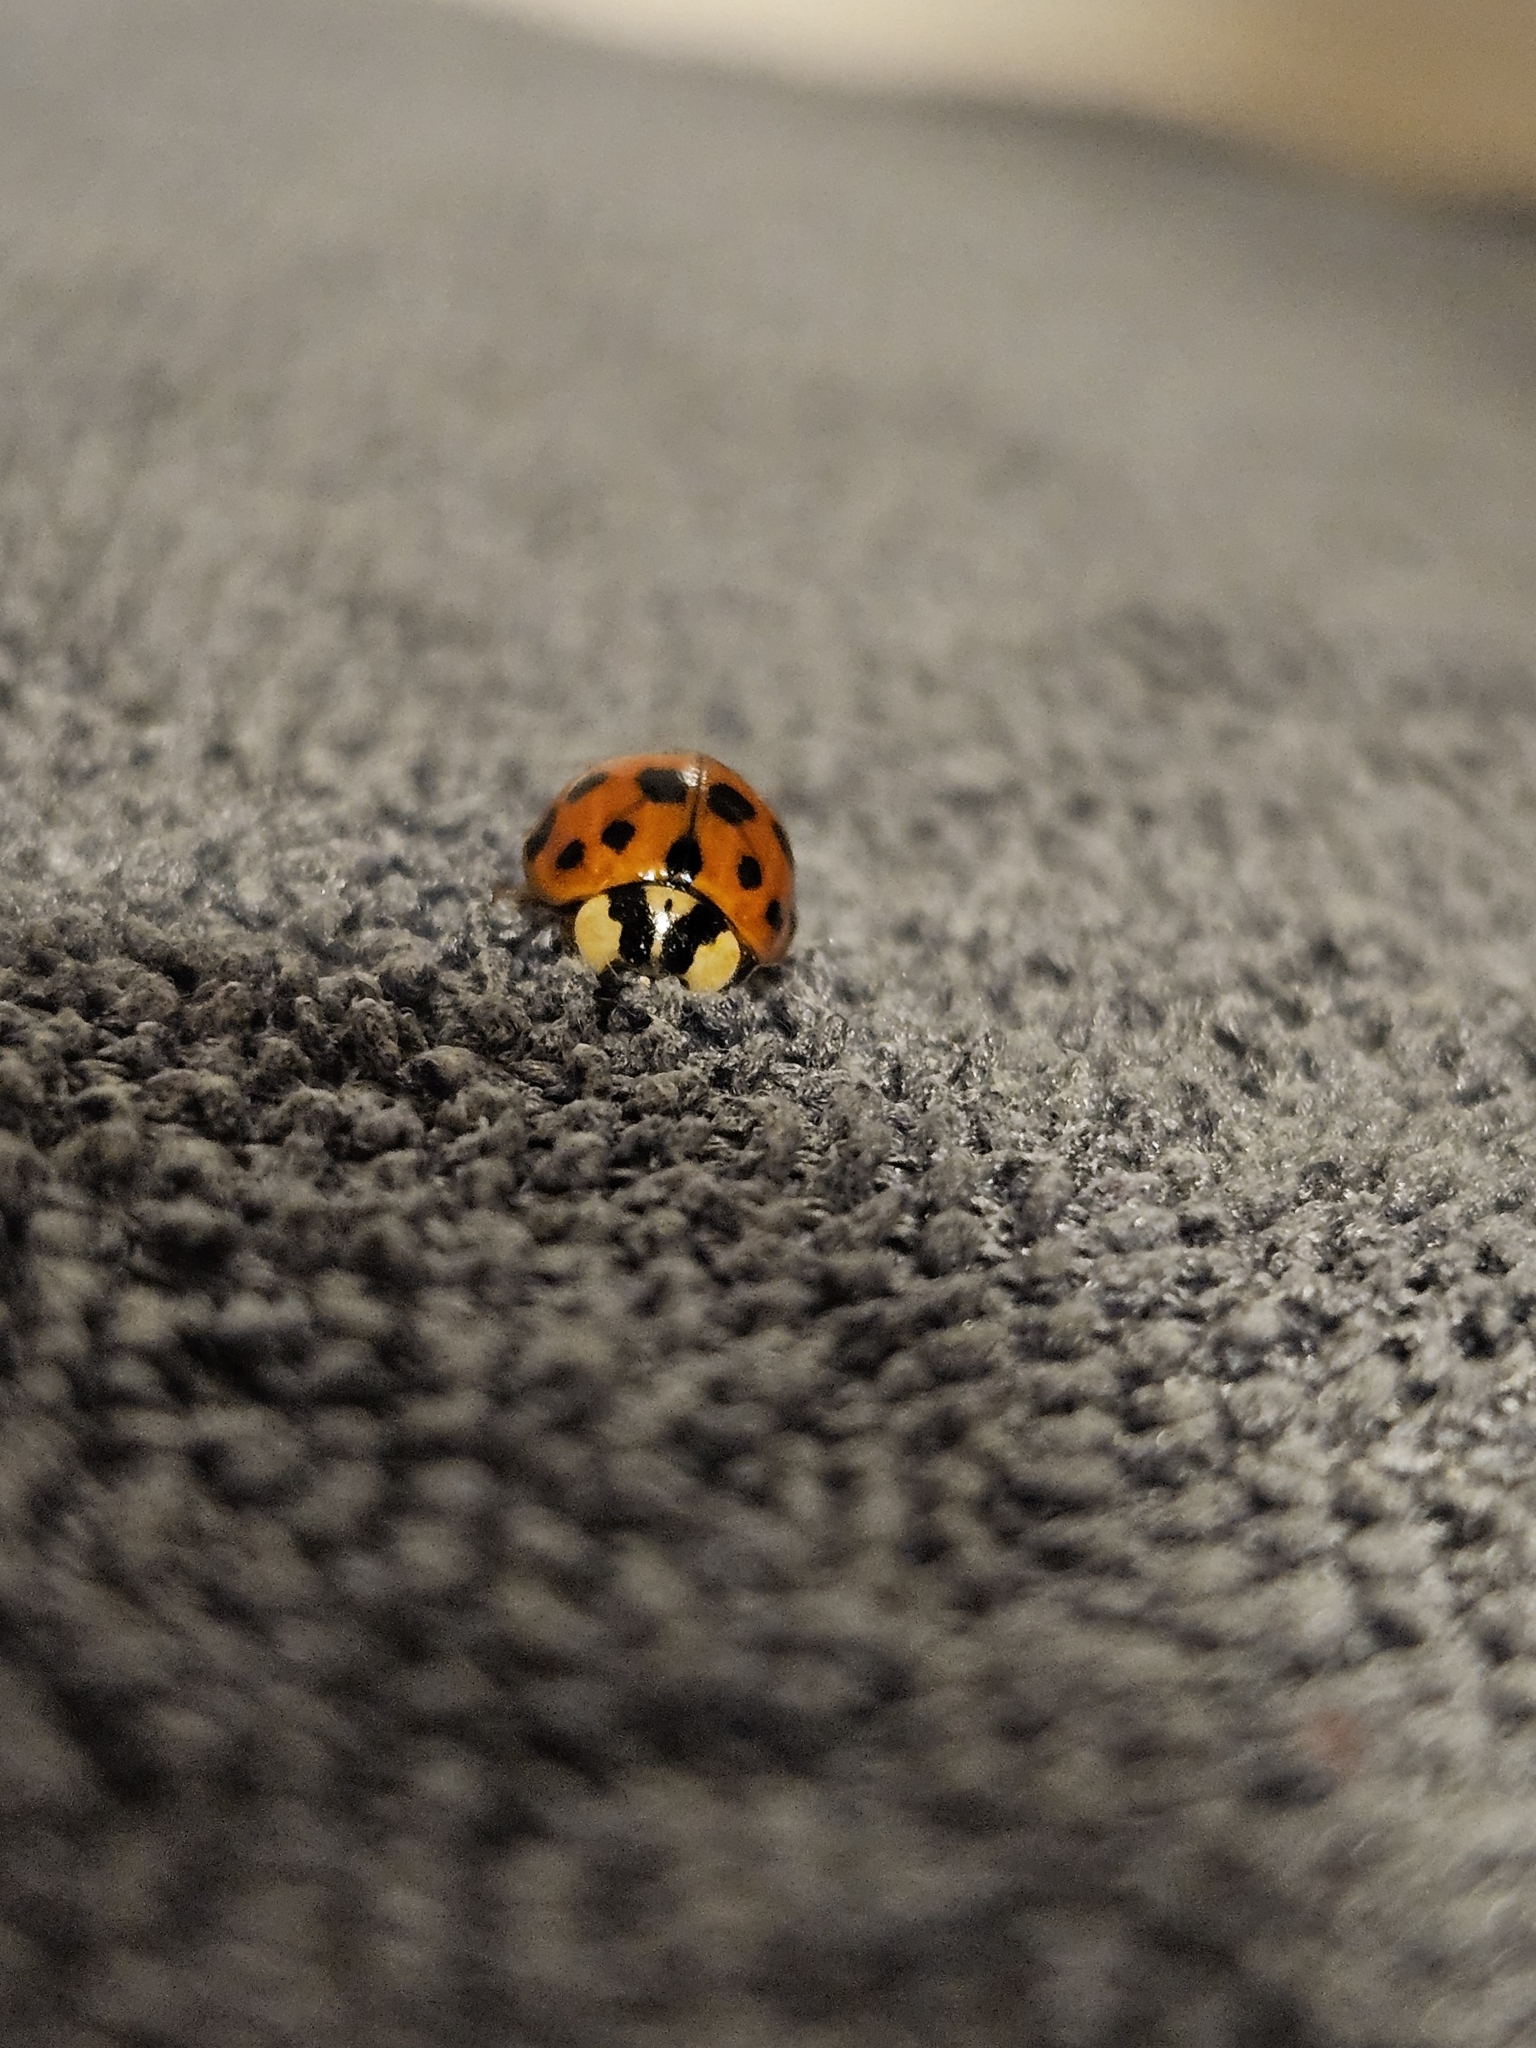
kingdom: Animalia
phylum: Arthropoda
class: Insecta
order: Coleoptera
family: Coccinellidae
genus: Harmonia
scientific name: Harmonia axyridis
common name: Harlequin ladybird
